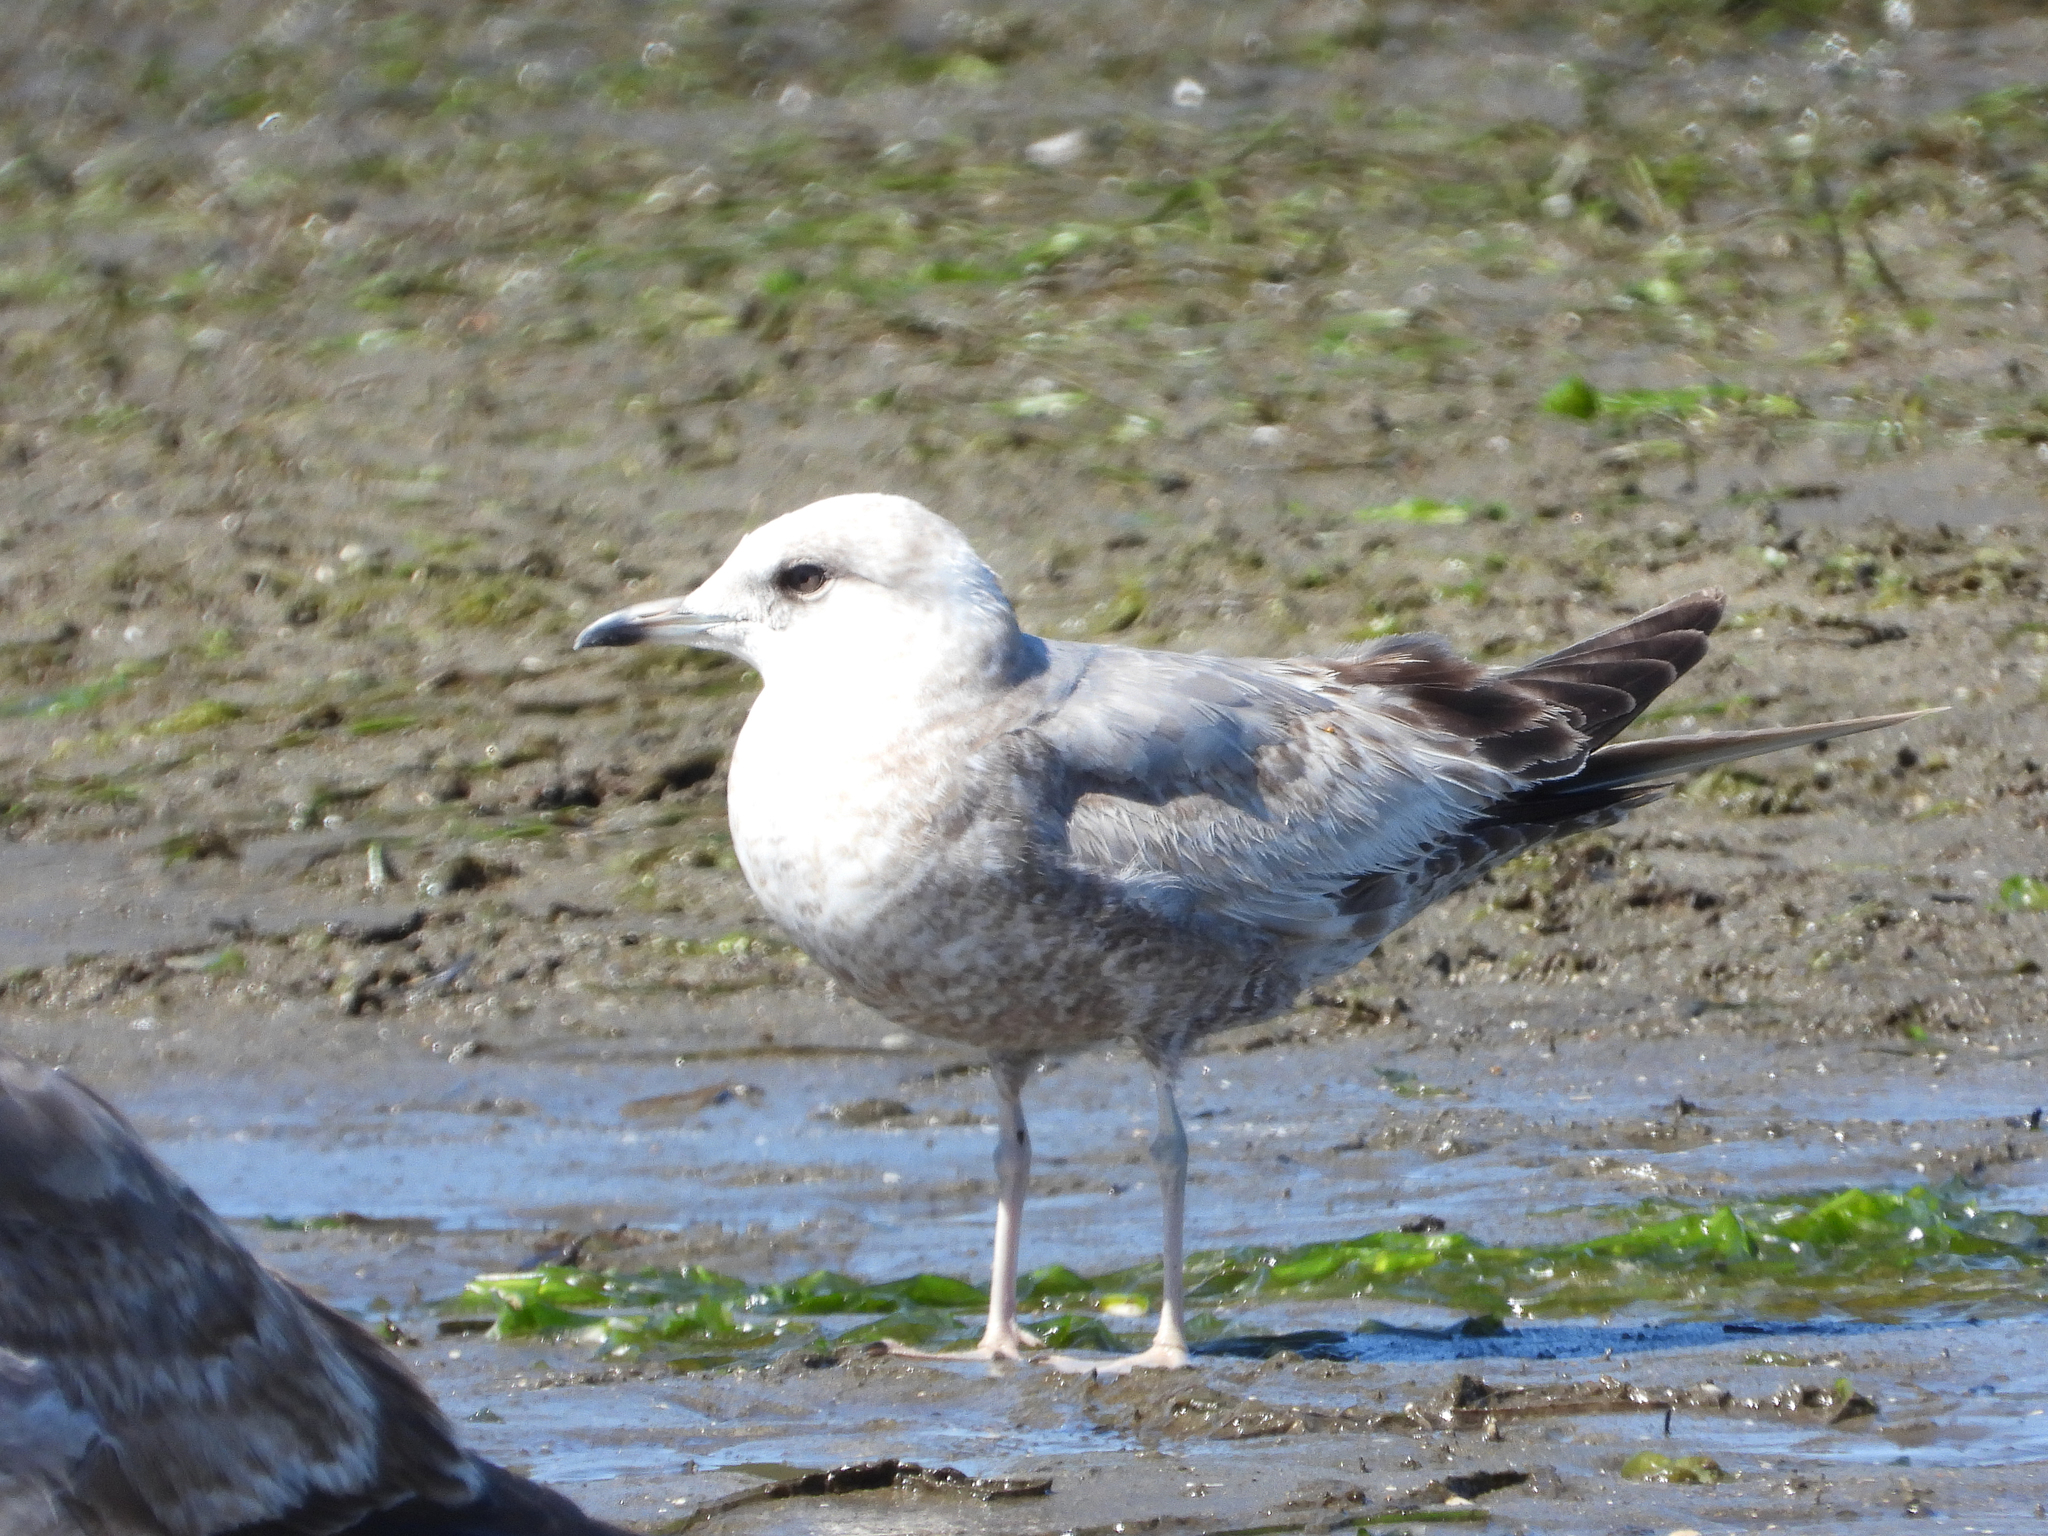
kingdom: Animalia
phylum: Chordata
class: Aves
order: Charadriiformes
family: Laridae
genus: Larus
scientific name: Larus brachyrhynchus
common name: Short-billed gull
